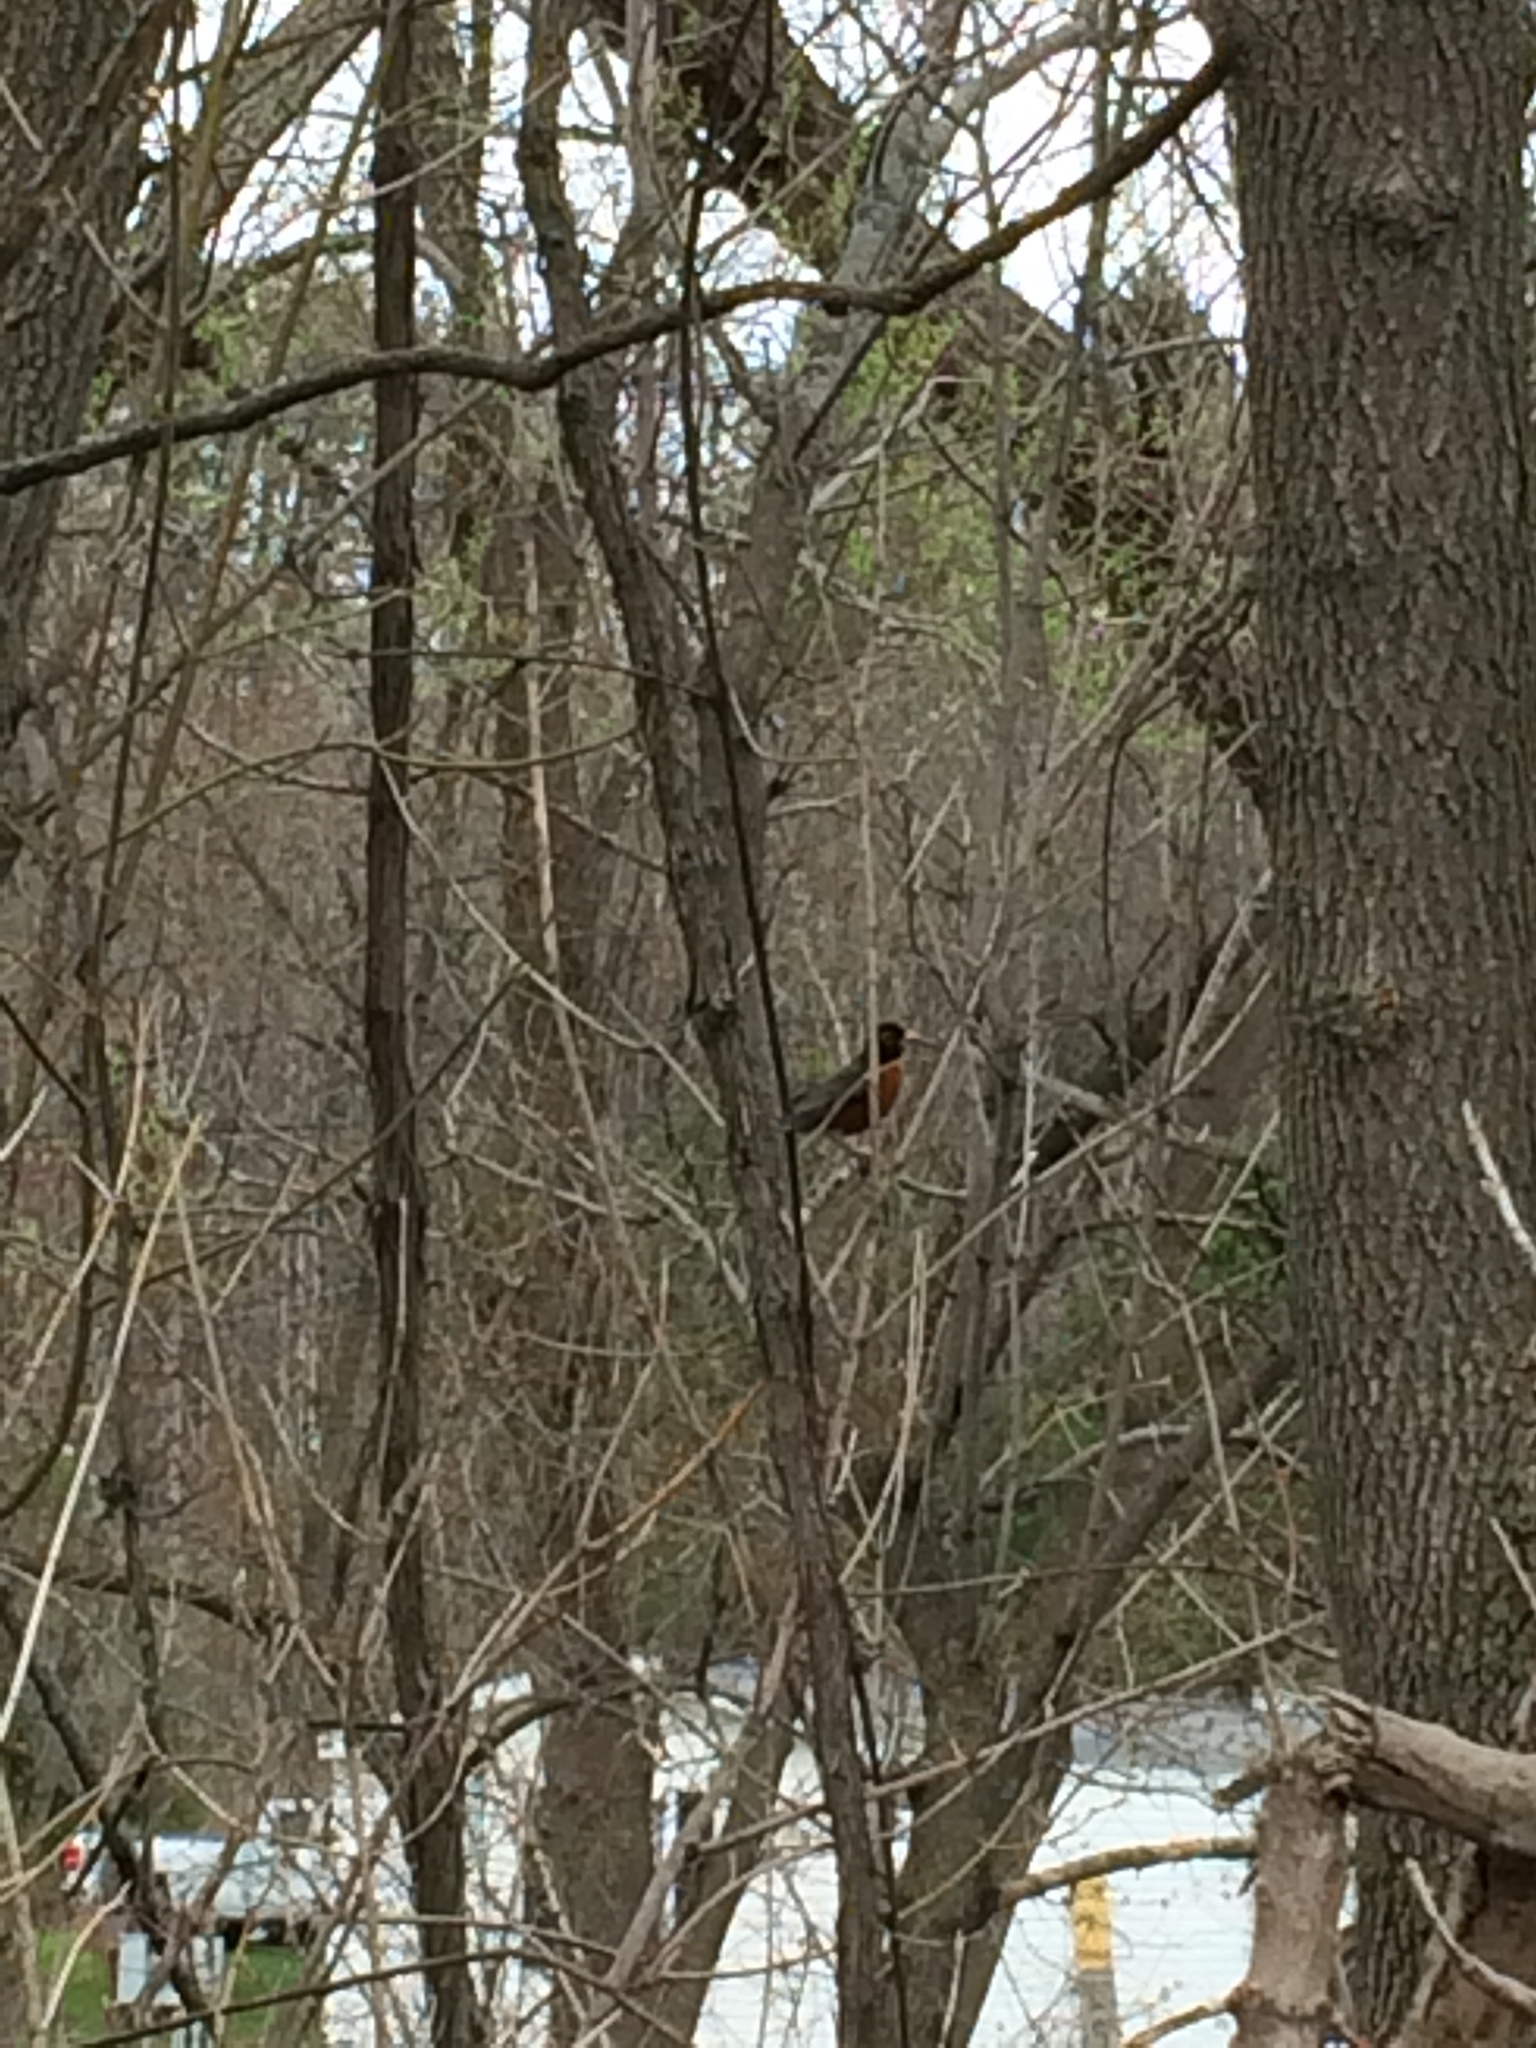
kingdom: Animalia
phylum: Chordata
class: Aves
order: Passeriformes
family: Turdidae
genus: Turdus
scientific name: Turdus migratorius
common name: American robin
